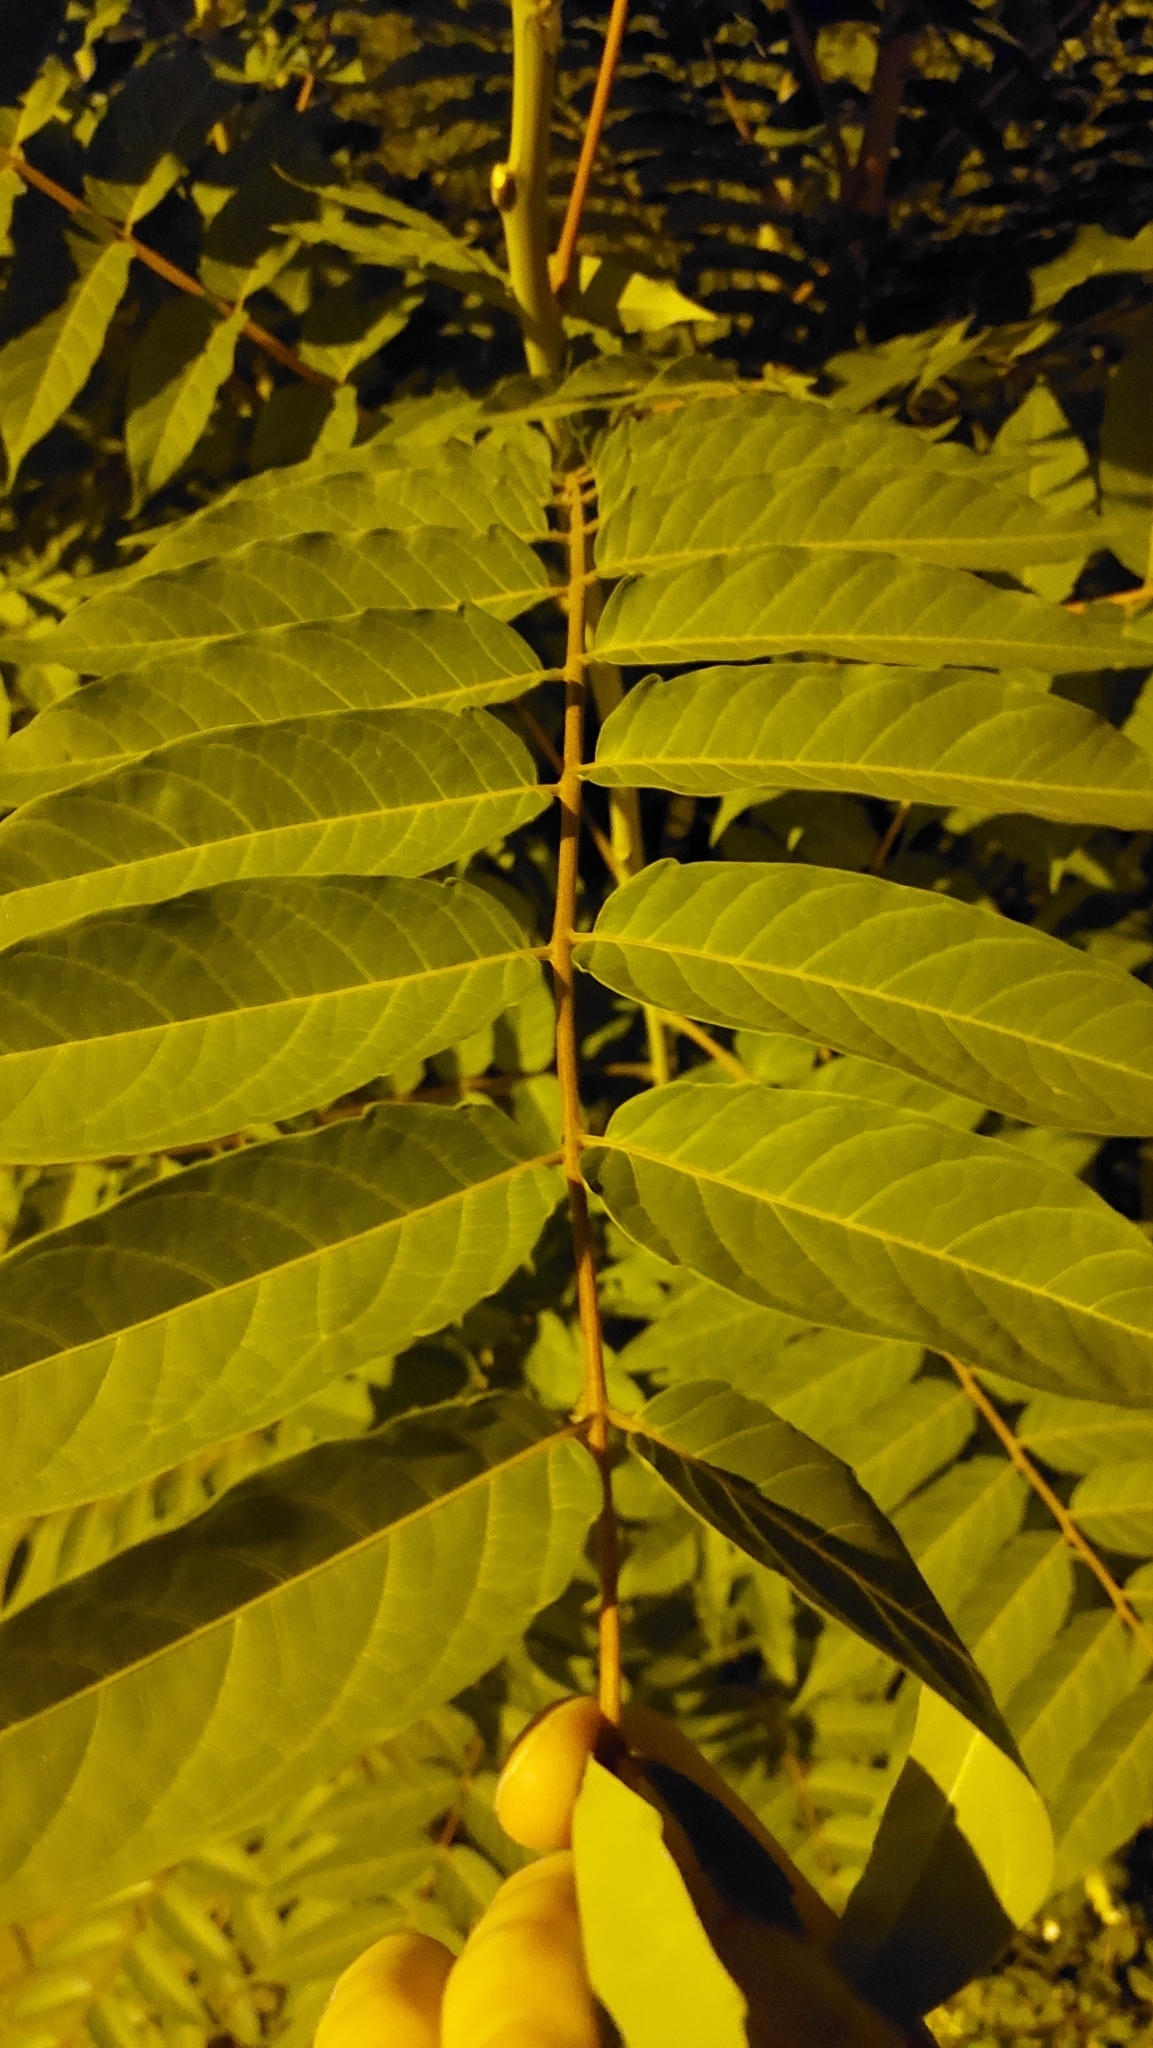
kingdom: Plantae
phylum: Tracheophyta
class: Magnoliopsida
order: Sapindales
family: Simaroubaceae
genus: Ailanthus
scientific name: Ailanthus altissima
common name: Tree-of-heaven
